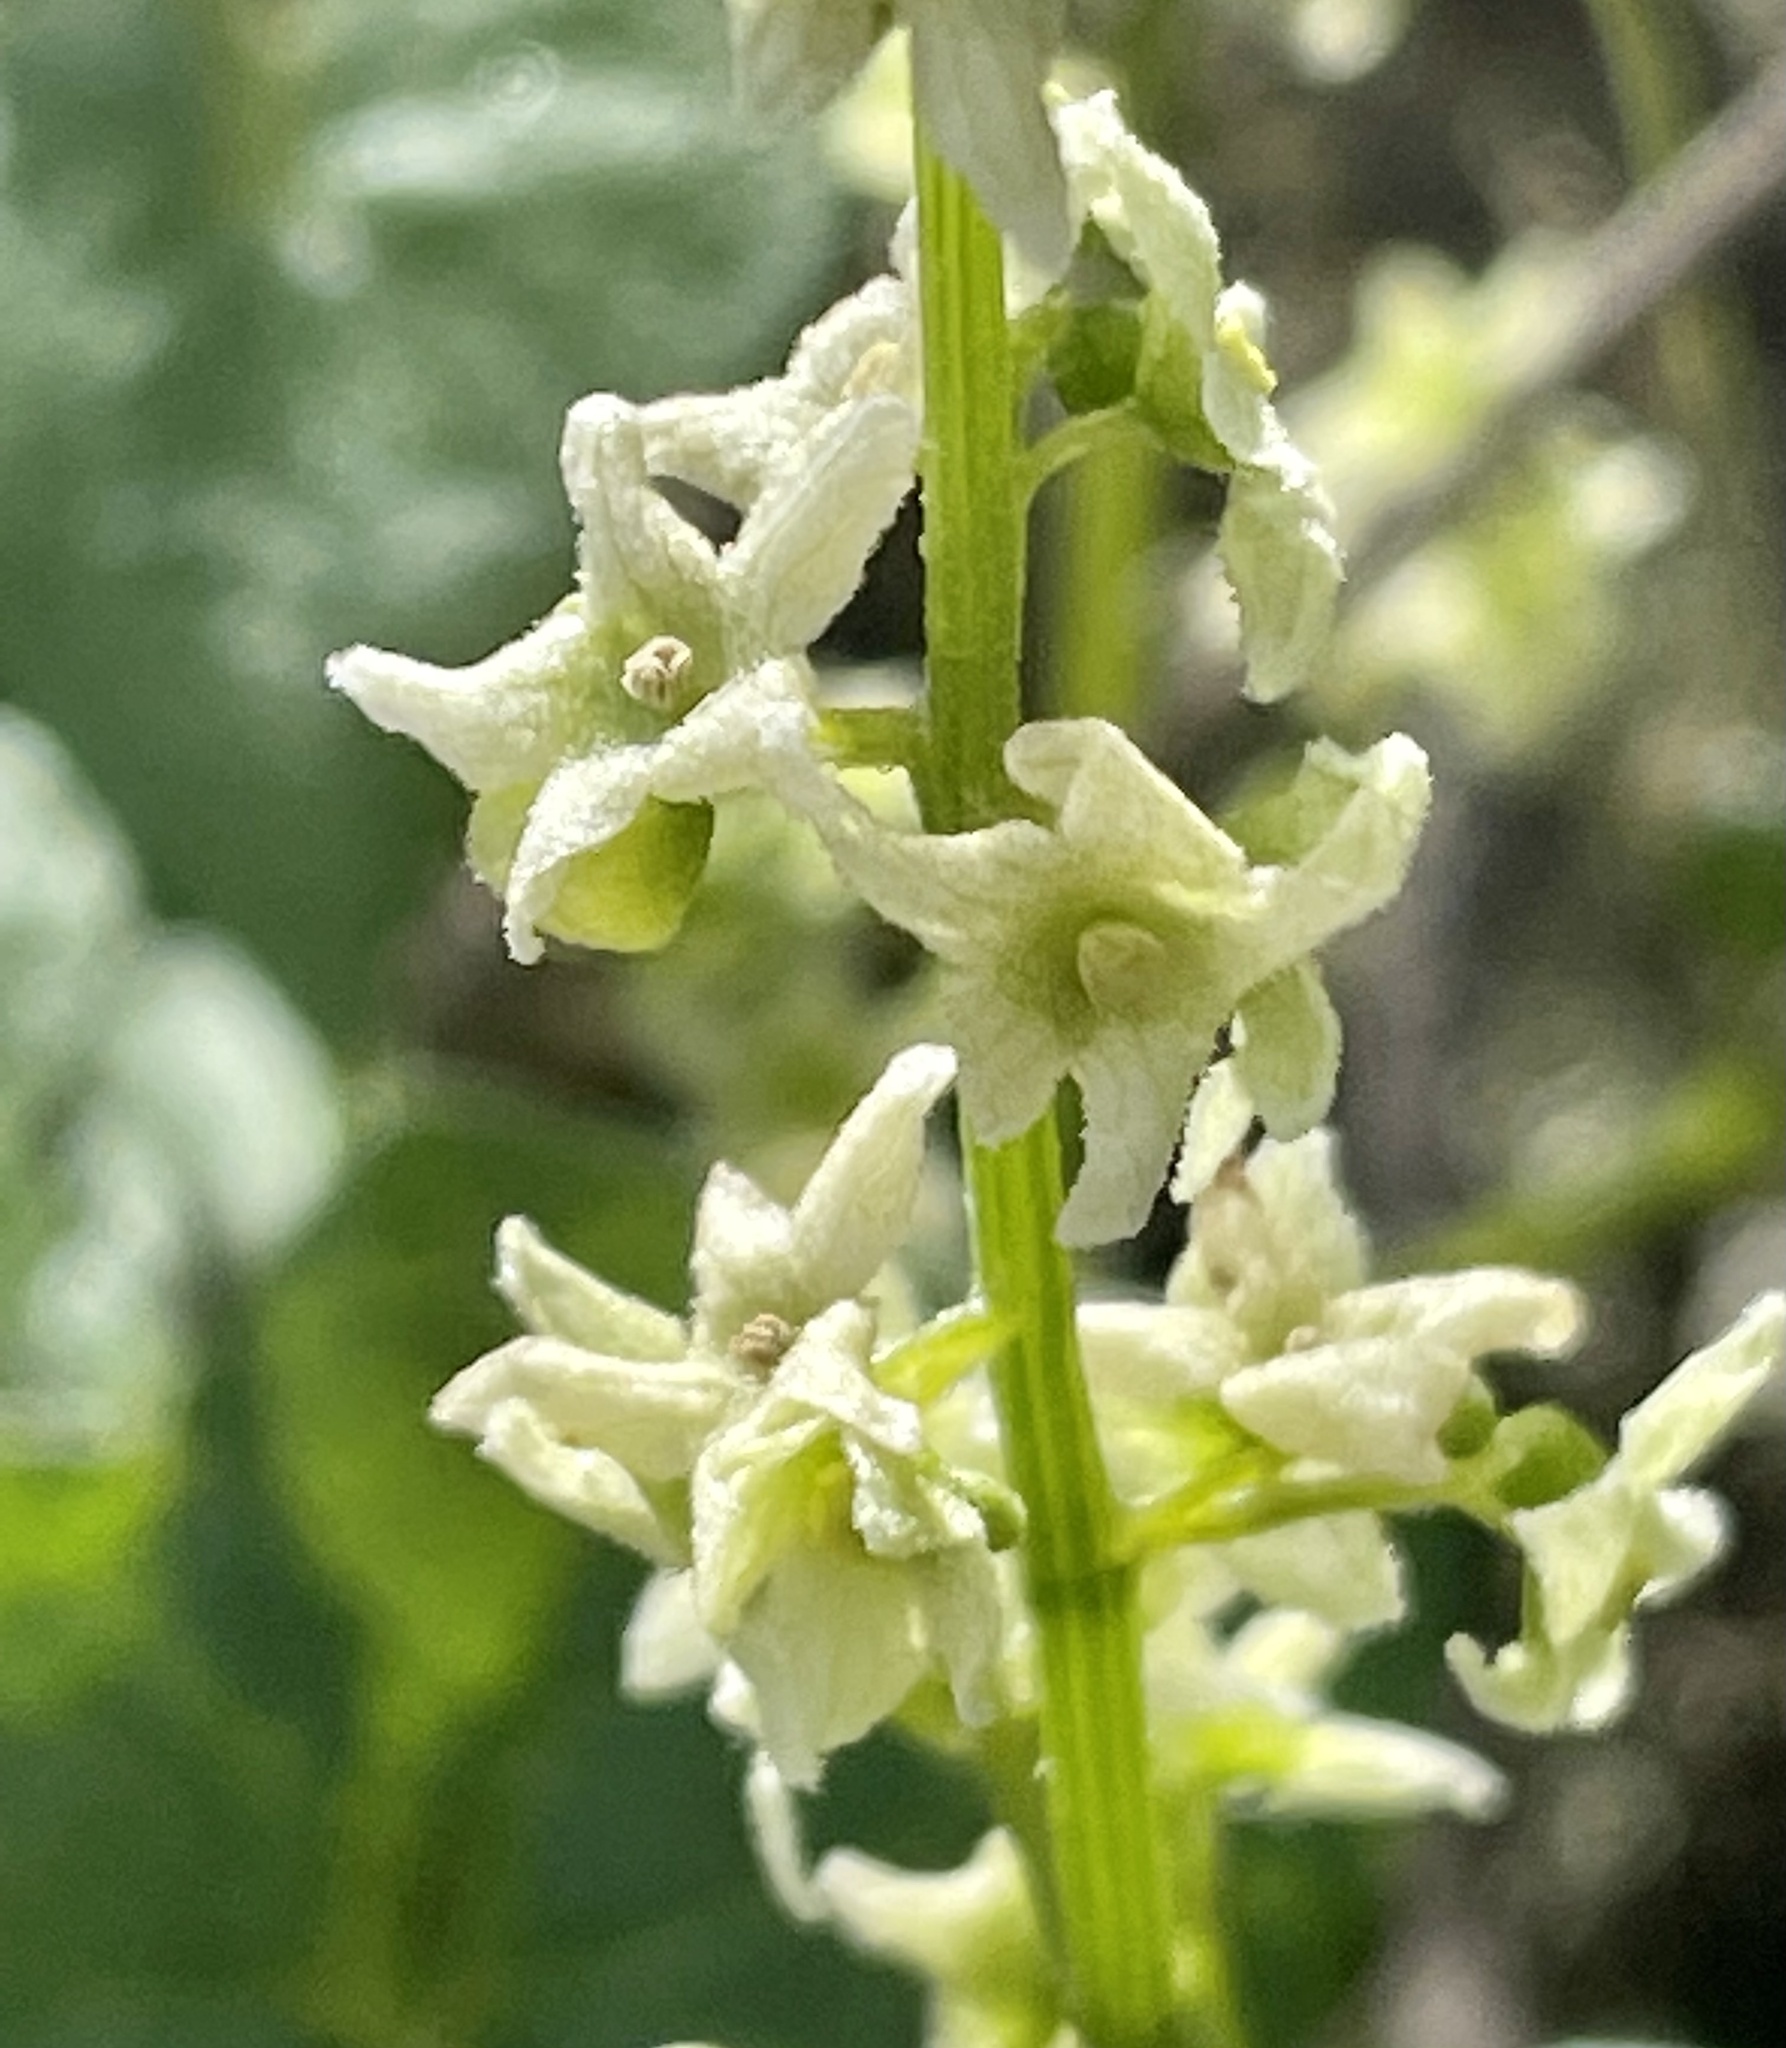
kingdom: Plantae
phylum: Tracheophyta
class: Magnoliopsida
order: Cucurbitales
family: Cucurbitaceae
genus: Marah
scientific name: Marah fabacea
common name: California manroot
